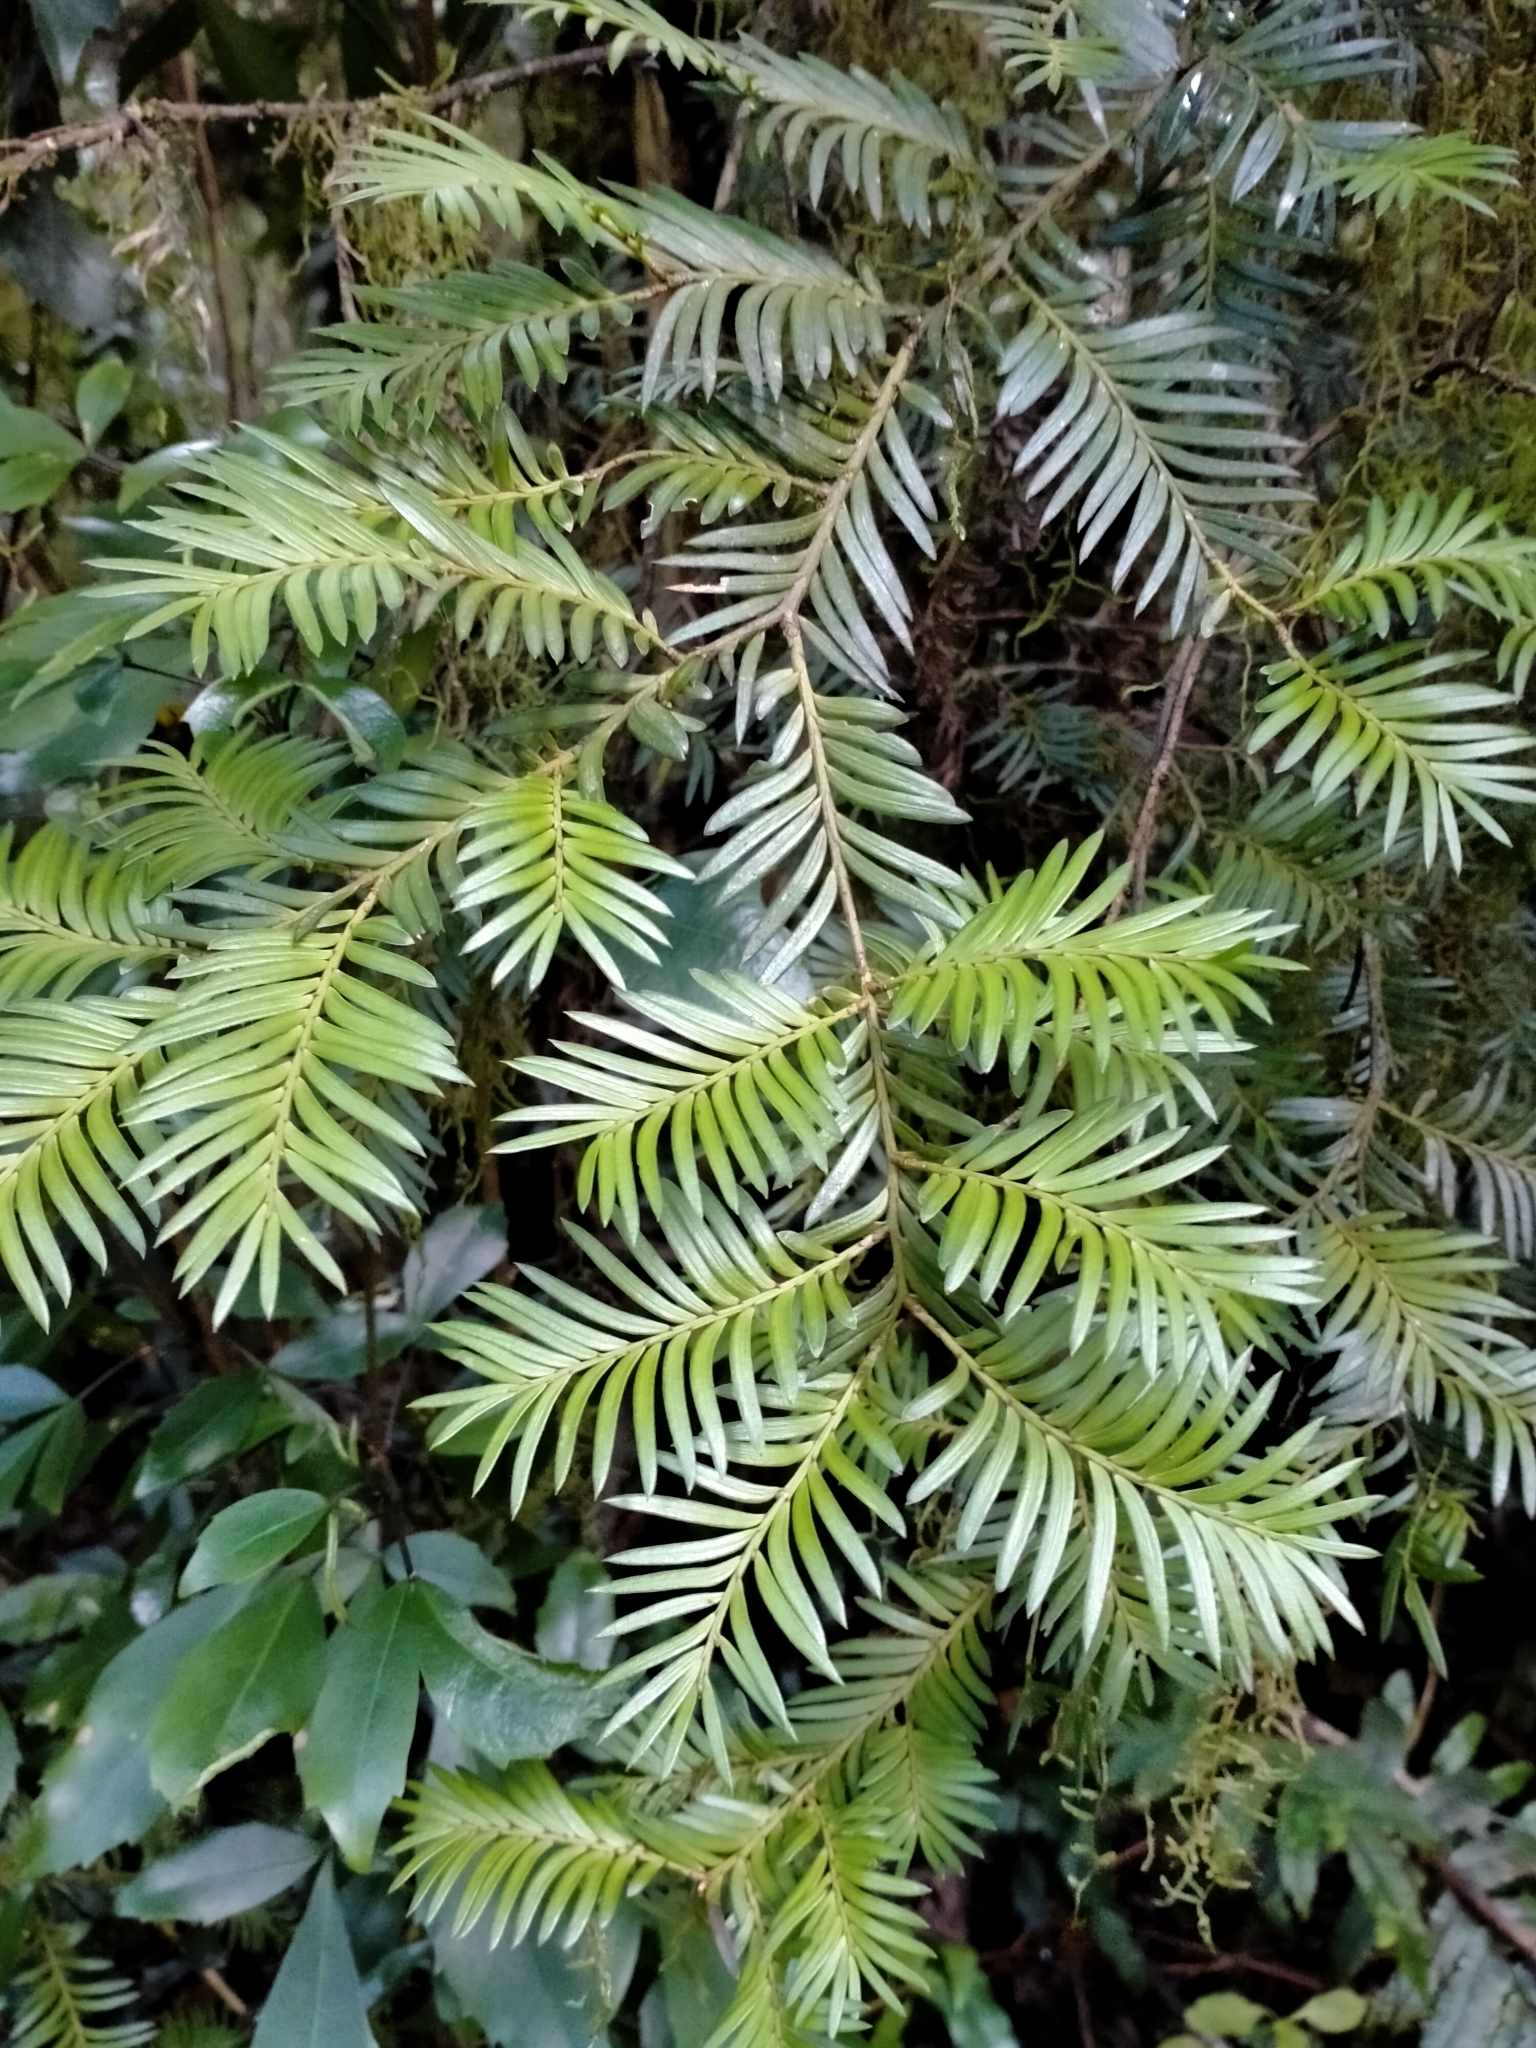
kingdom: Plantae
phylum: Tracheophyta
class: Pinopsida
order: Pinales
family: Podocarpaceae
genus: Prumnopitys
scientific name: Prumnopitys ferruginea
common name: Brown pine
